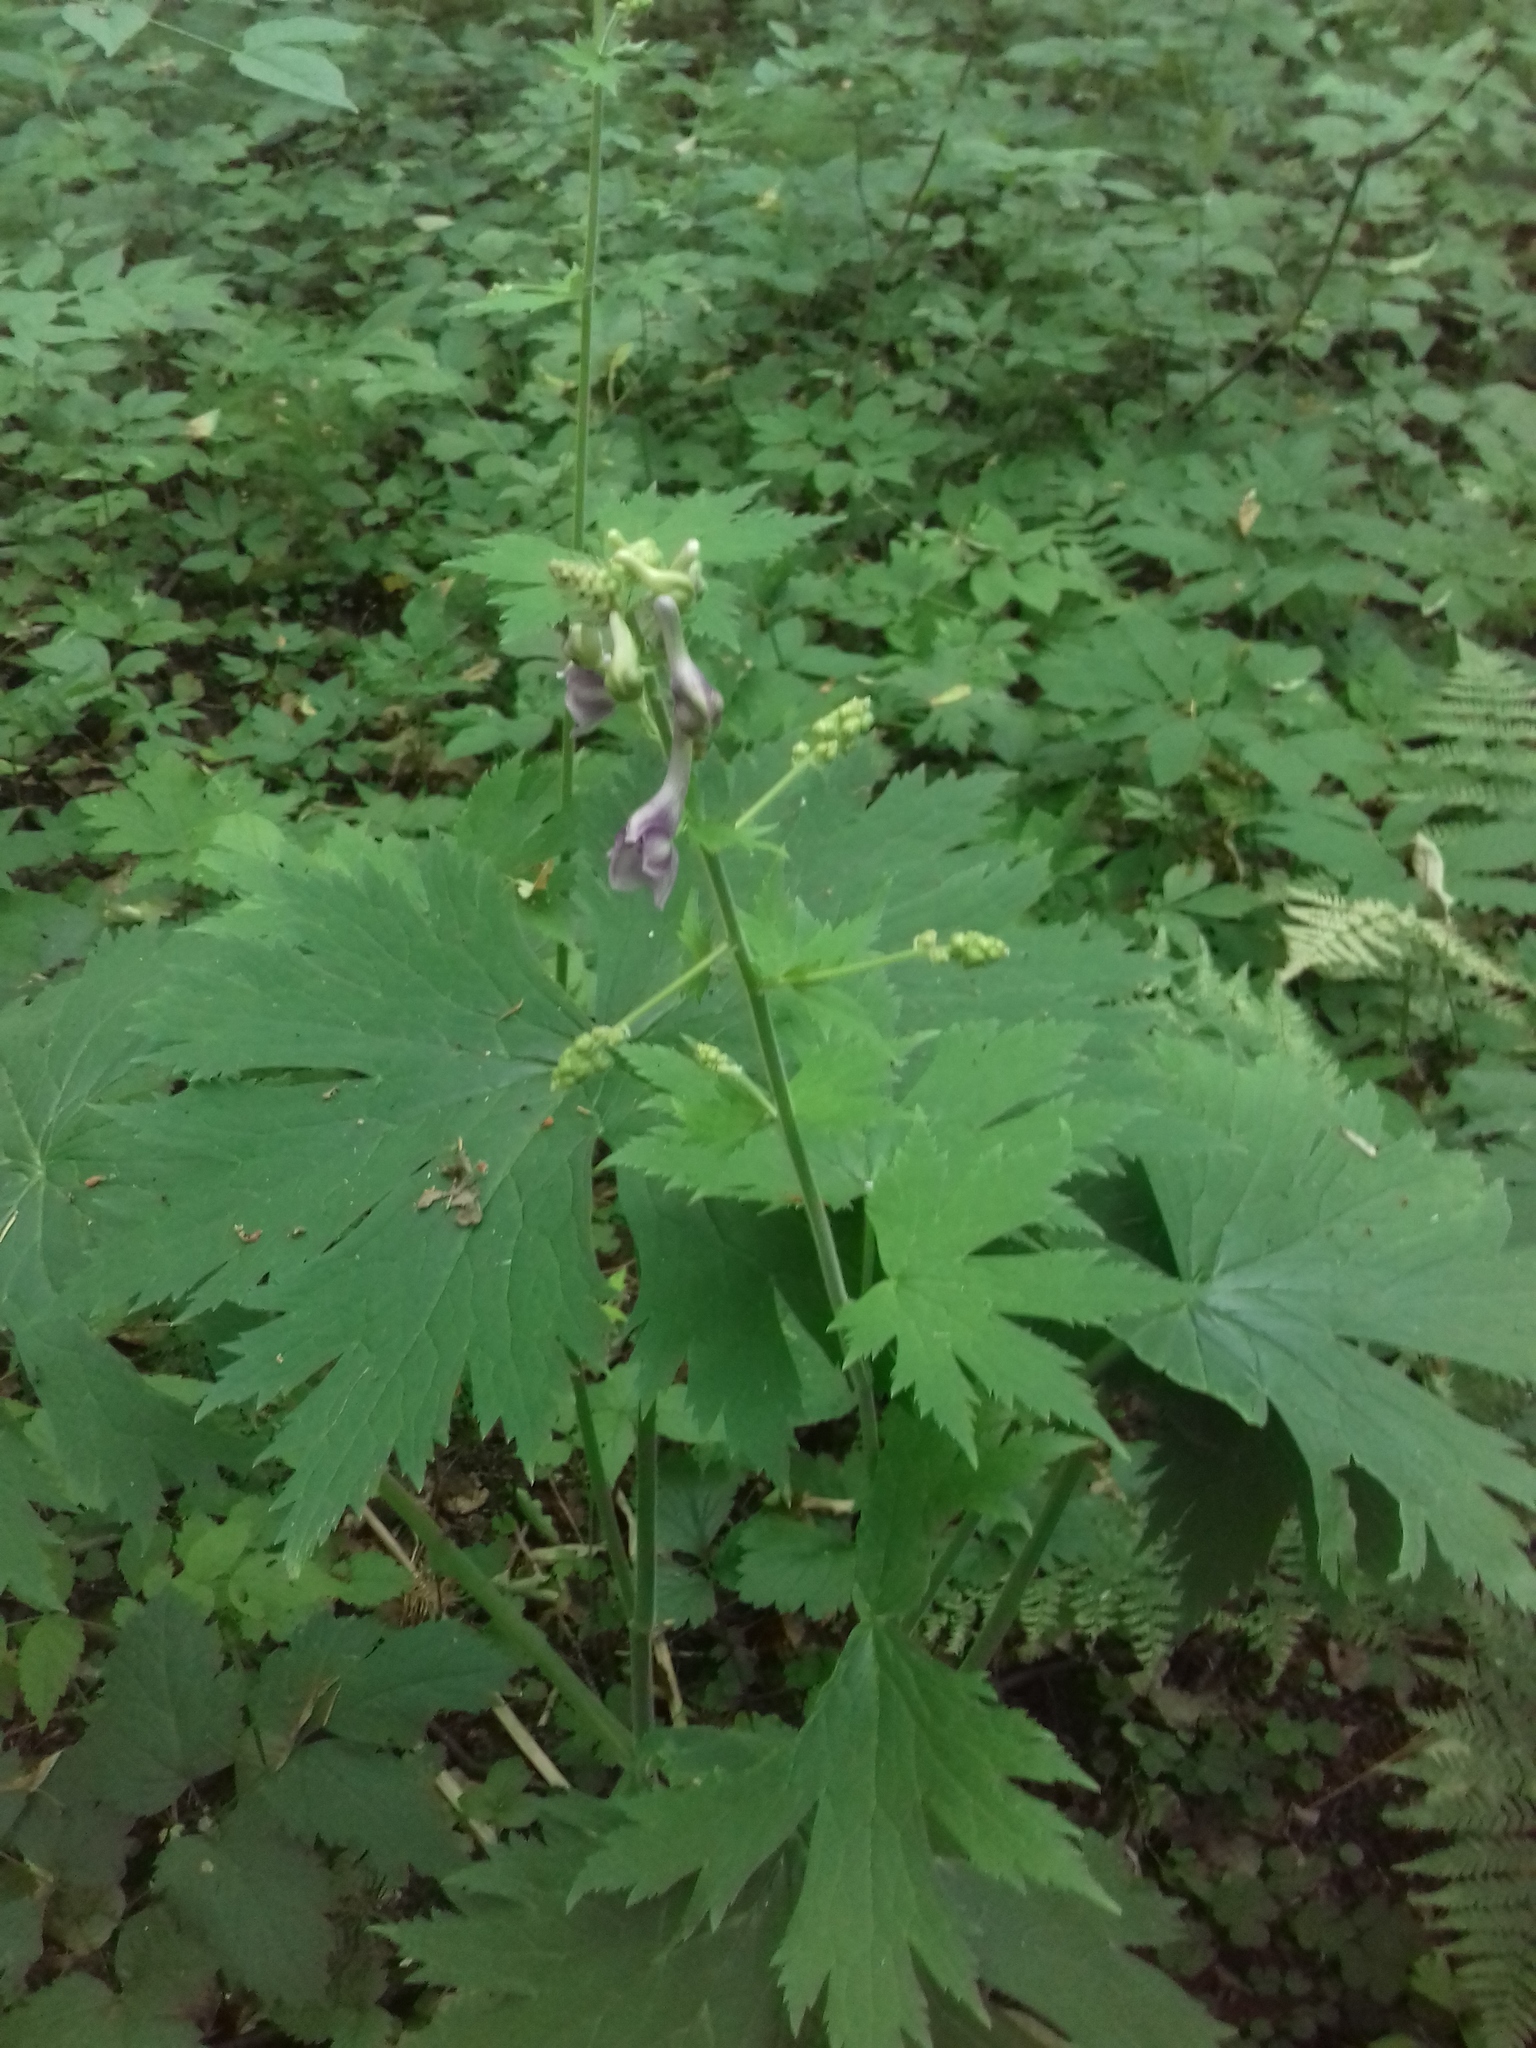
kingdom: Plantae
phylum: Tracheophyta
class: Magnoliopsida
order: Ranunculales
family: Ranunculaceae
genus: Aconitum
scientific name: Aconitum septentrionale
